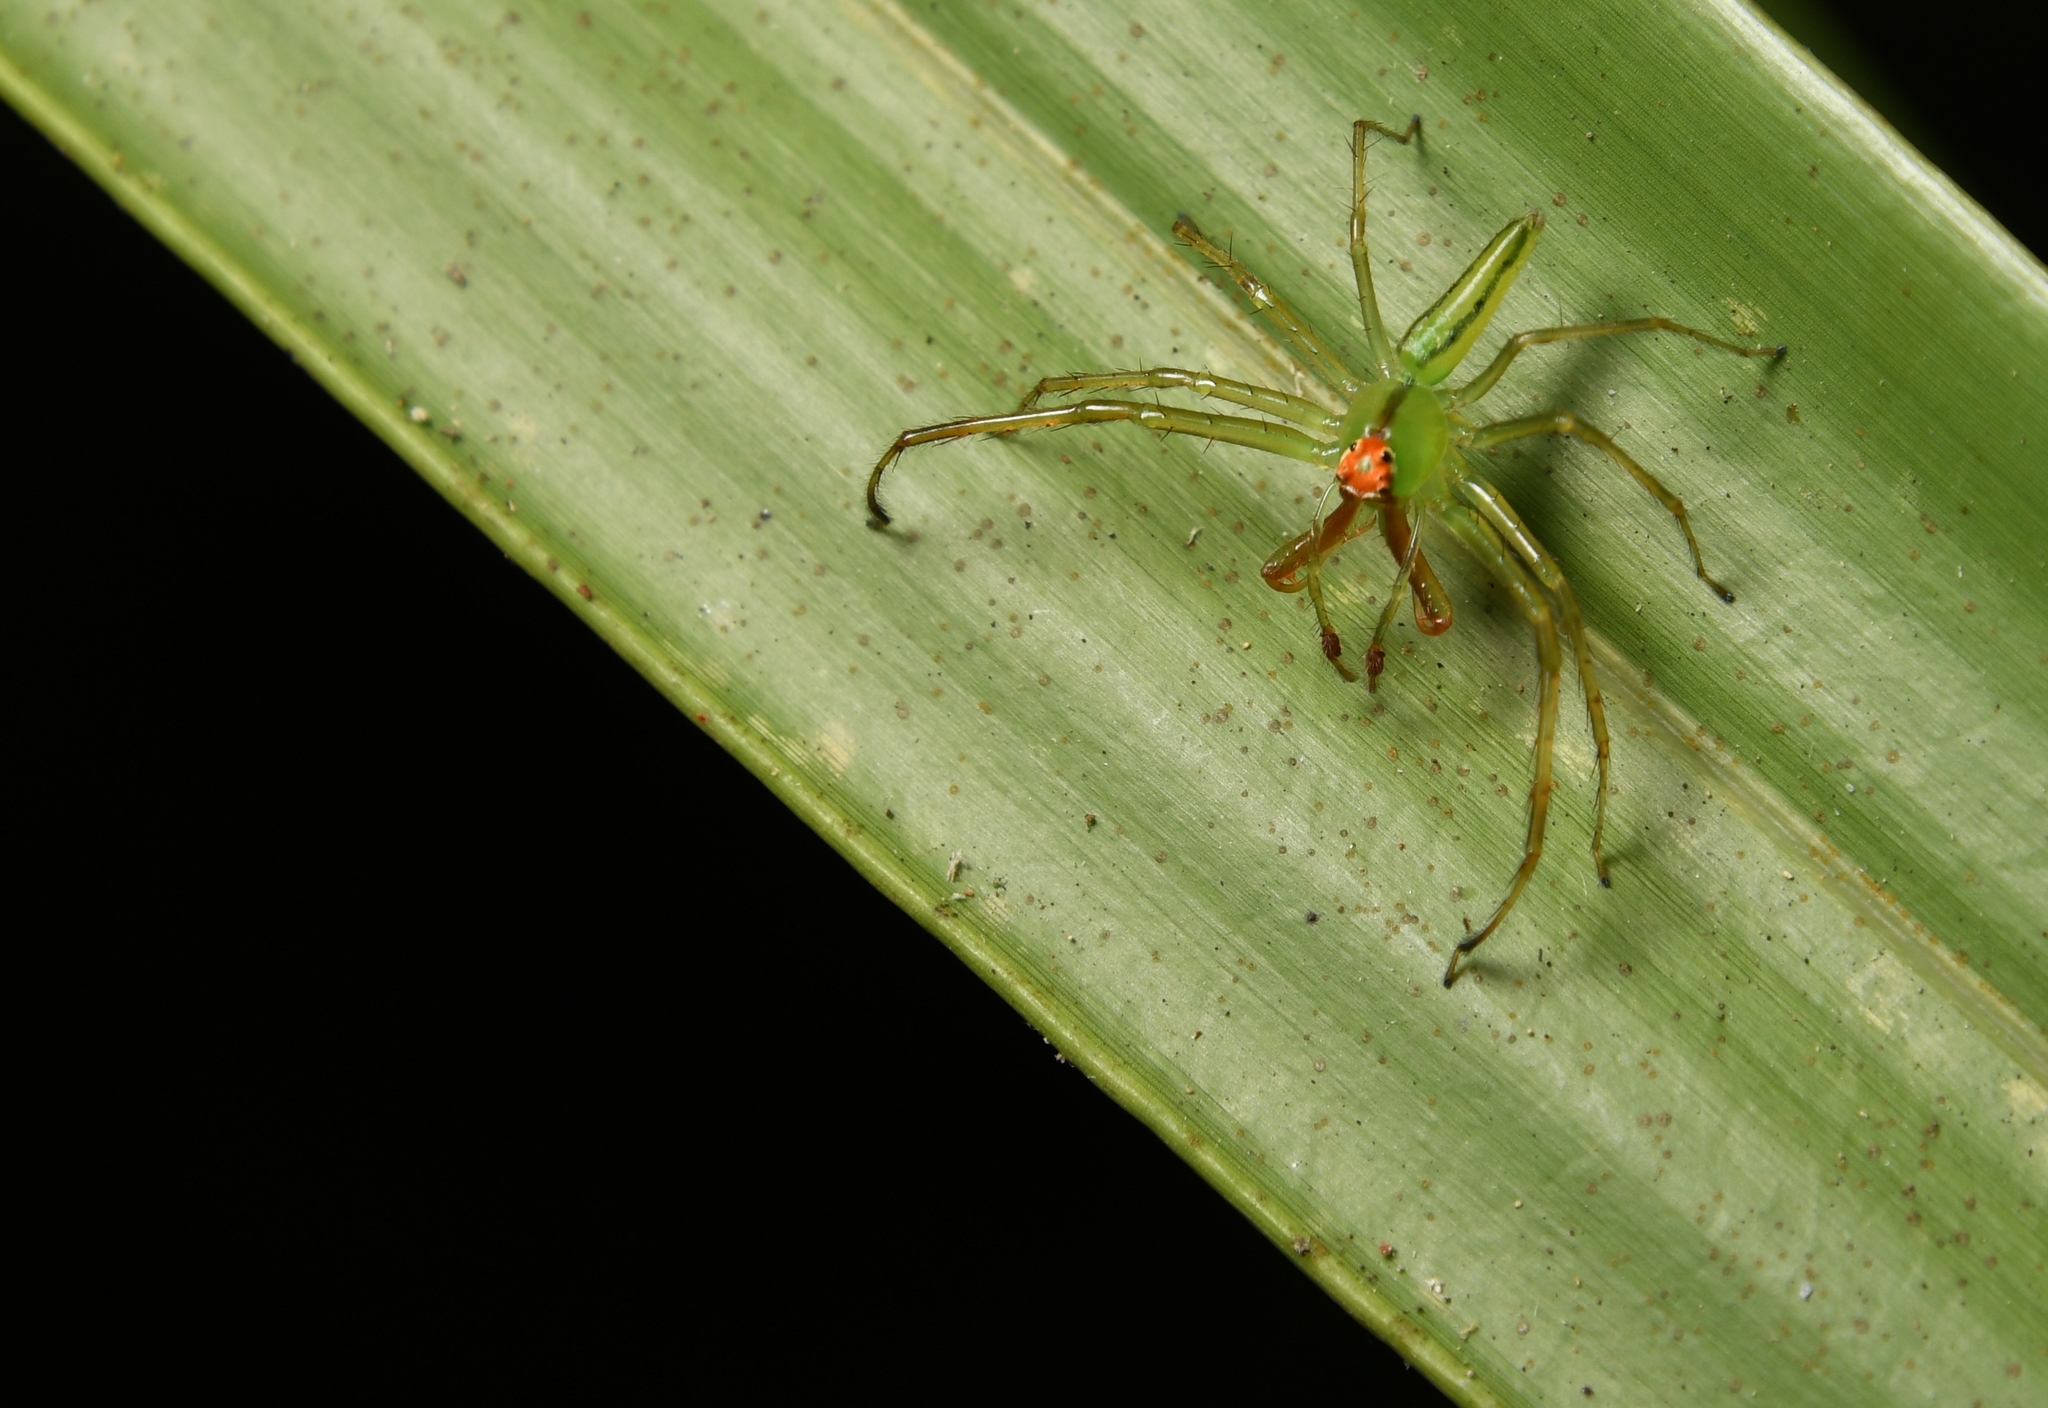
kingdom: Animalia
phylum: Arthropoda
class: Arachnida
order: Araneae
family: Salticidae
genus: Lyssomanes
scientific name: Lyssomanes viridis
